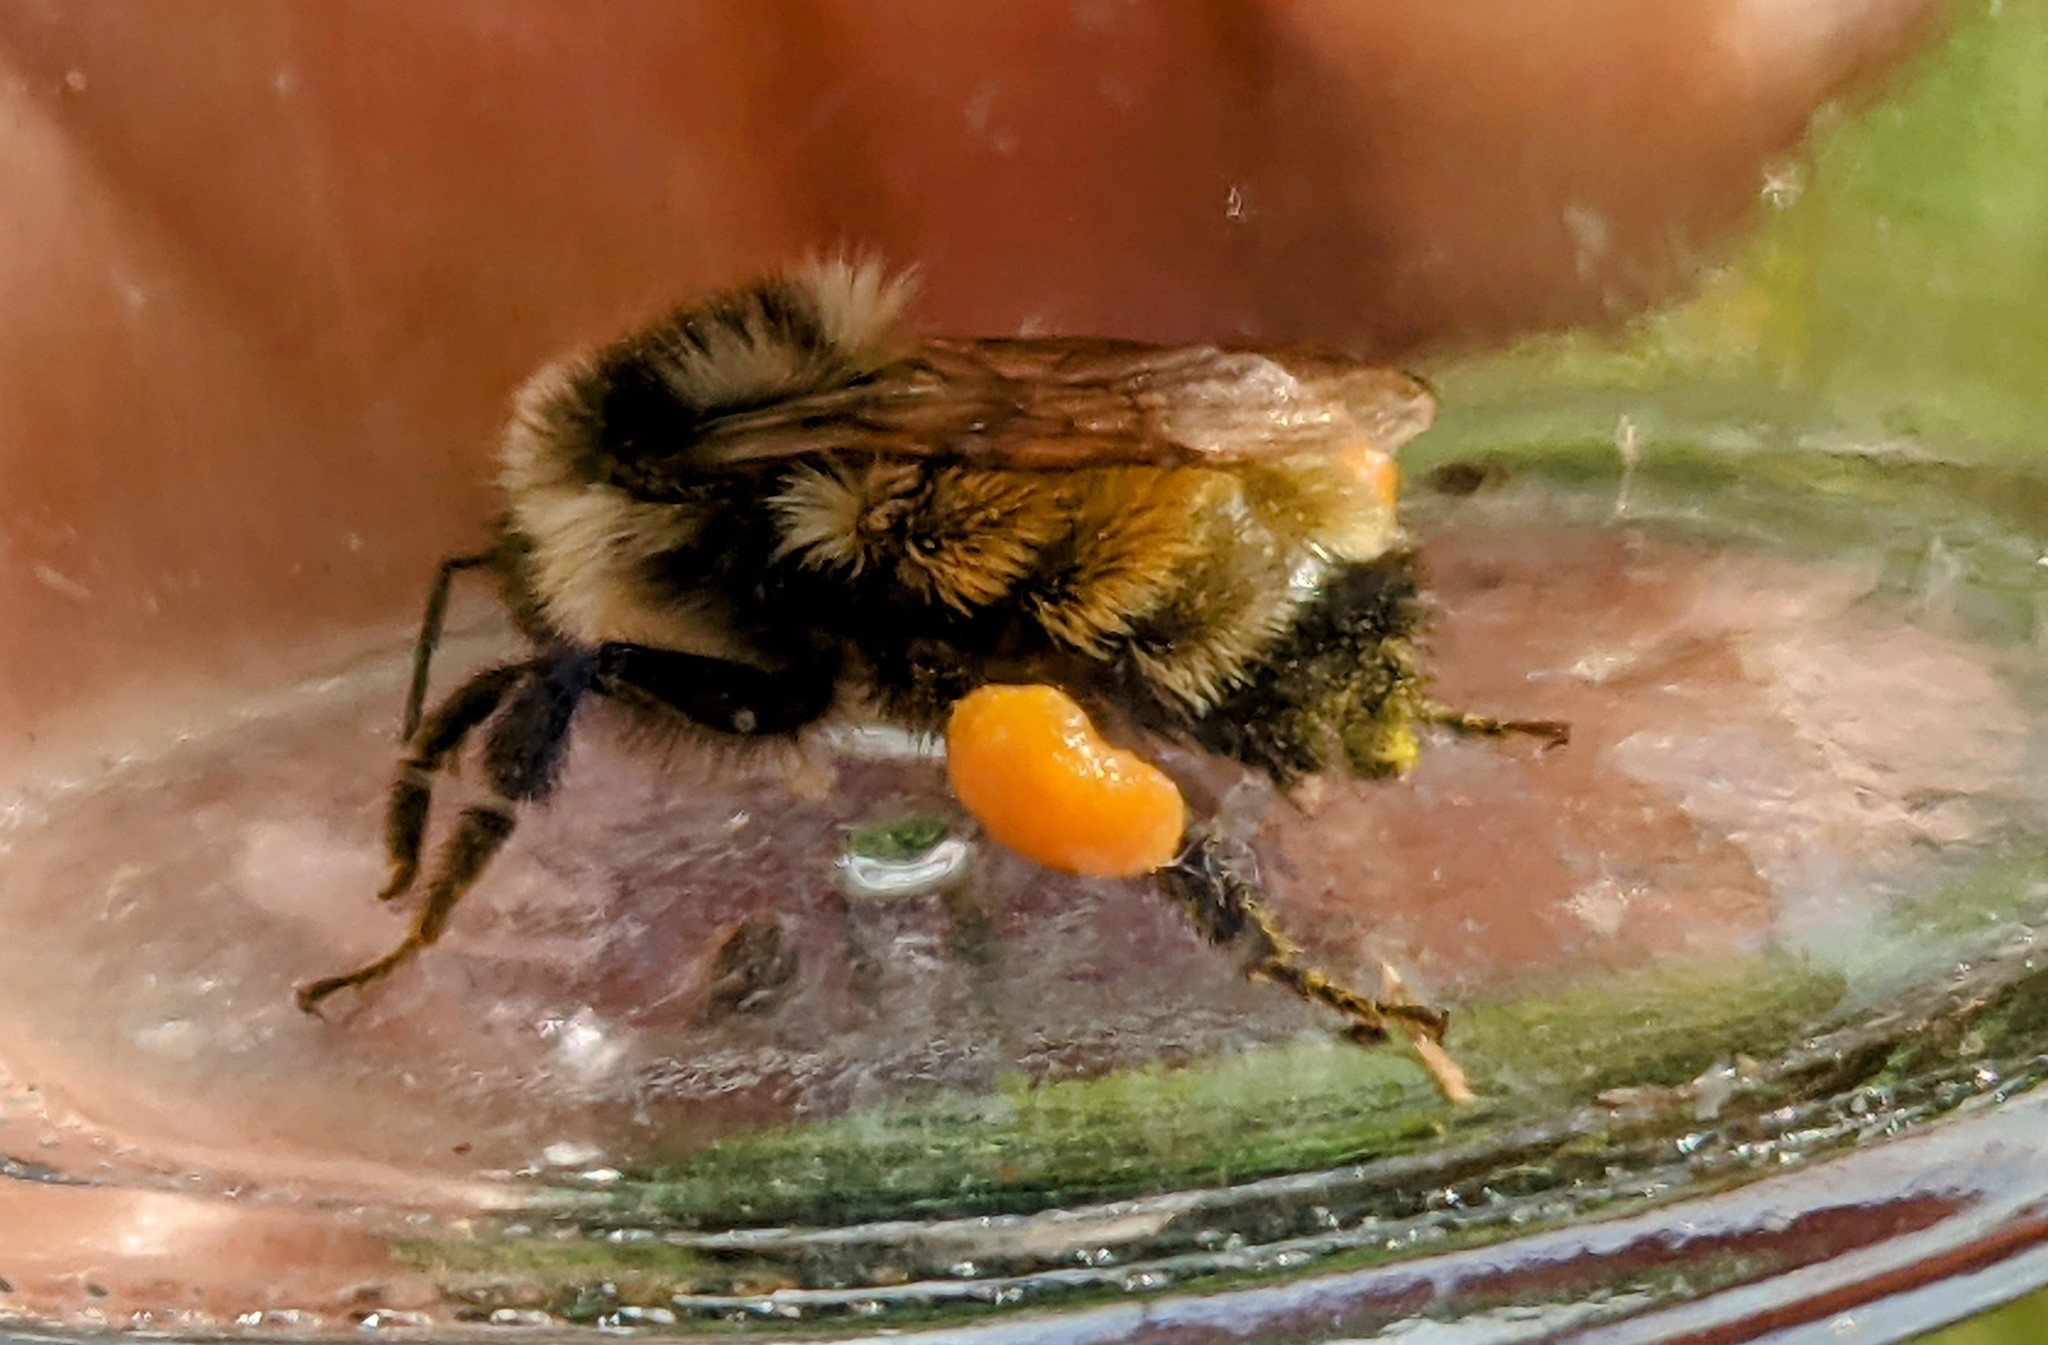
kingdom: Animalia
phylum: Arthropoda
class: Insecta
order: Hymenoptera
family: Apidae
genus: Bombus
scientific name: Bombus ternarius
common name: Tri-colored bumble bee
